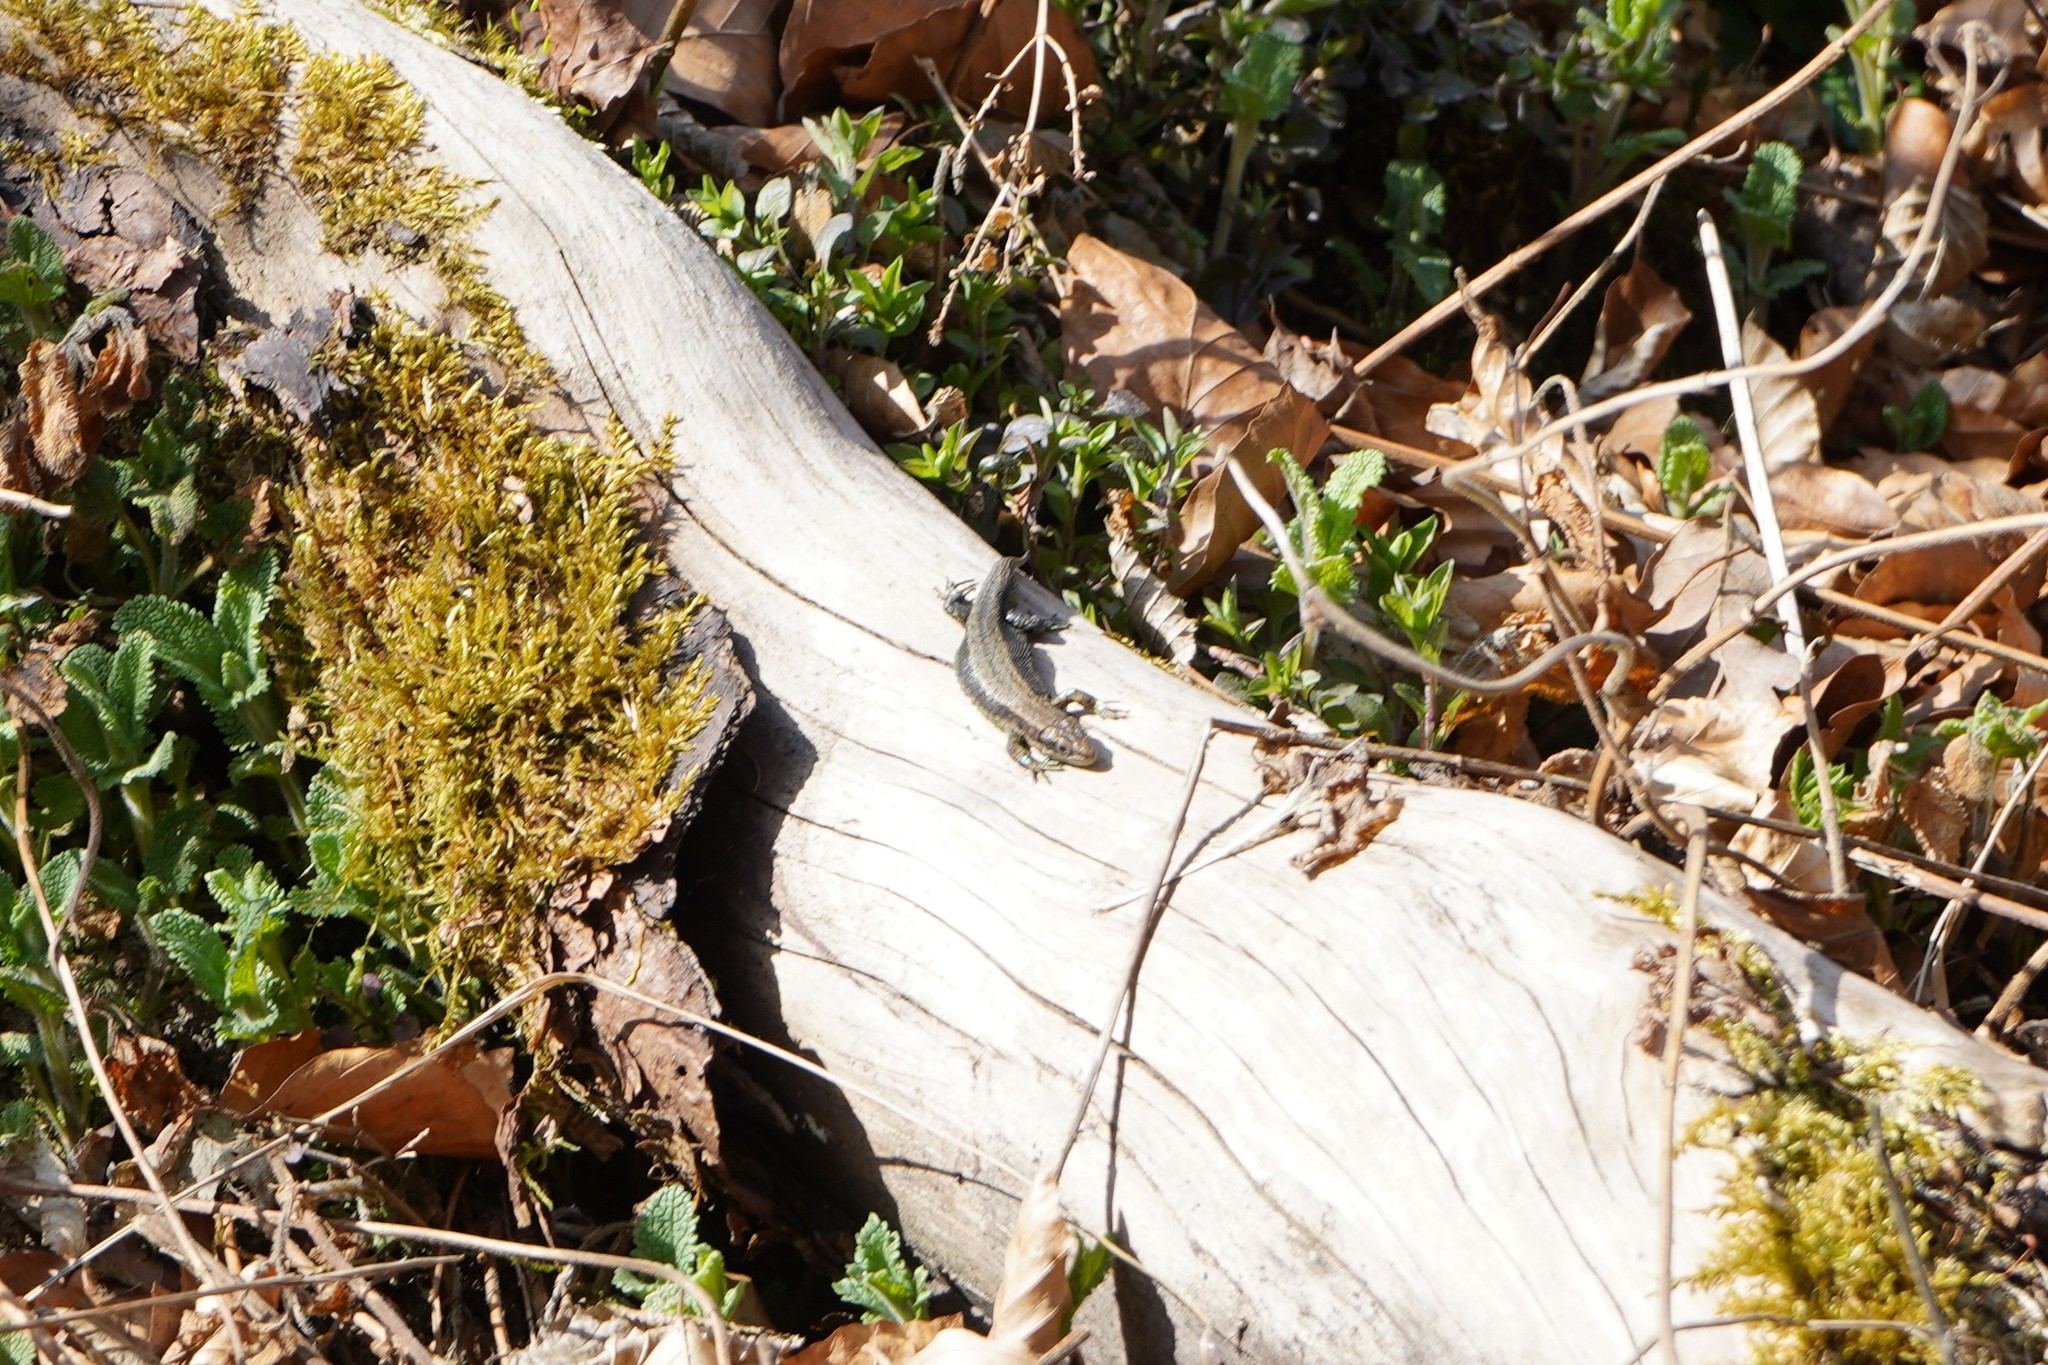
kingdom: Animalia
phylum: Chordata
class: Squamata
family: Lacertidae
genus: Zootoca
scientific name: Zootoca vivipara
